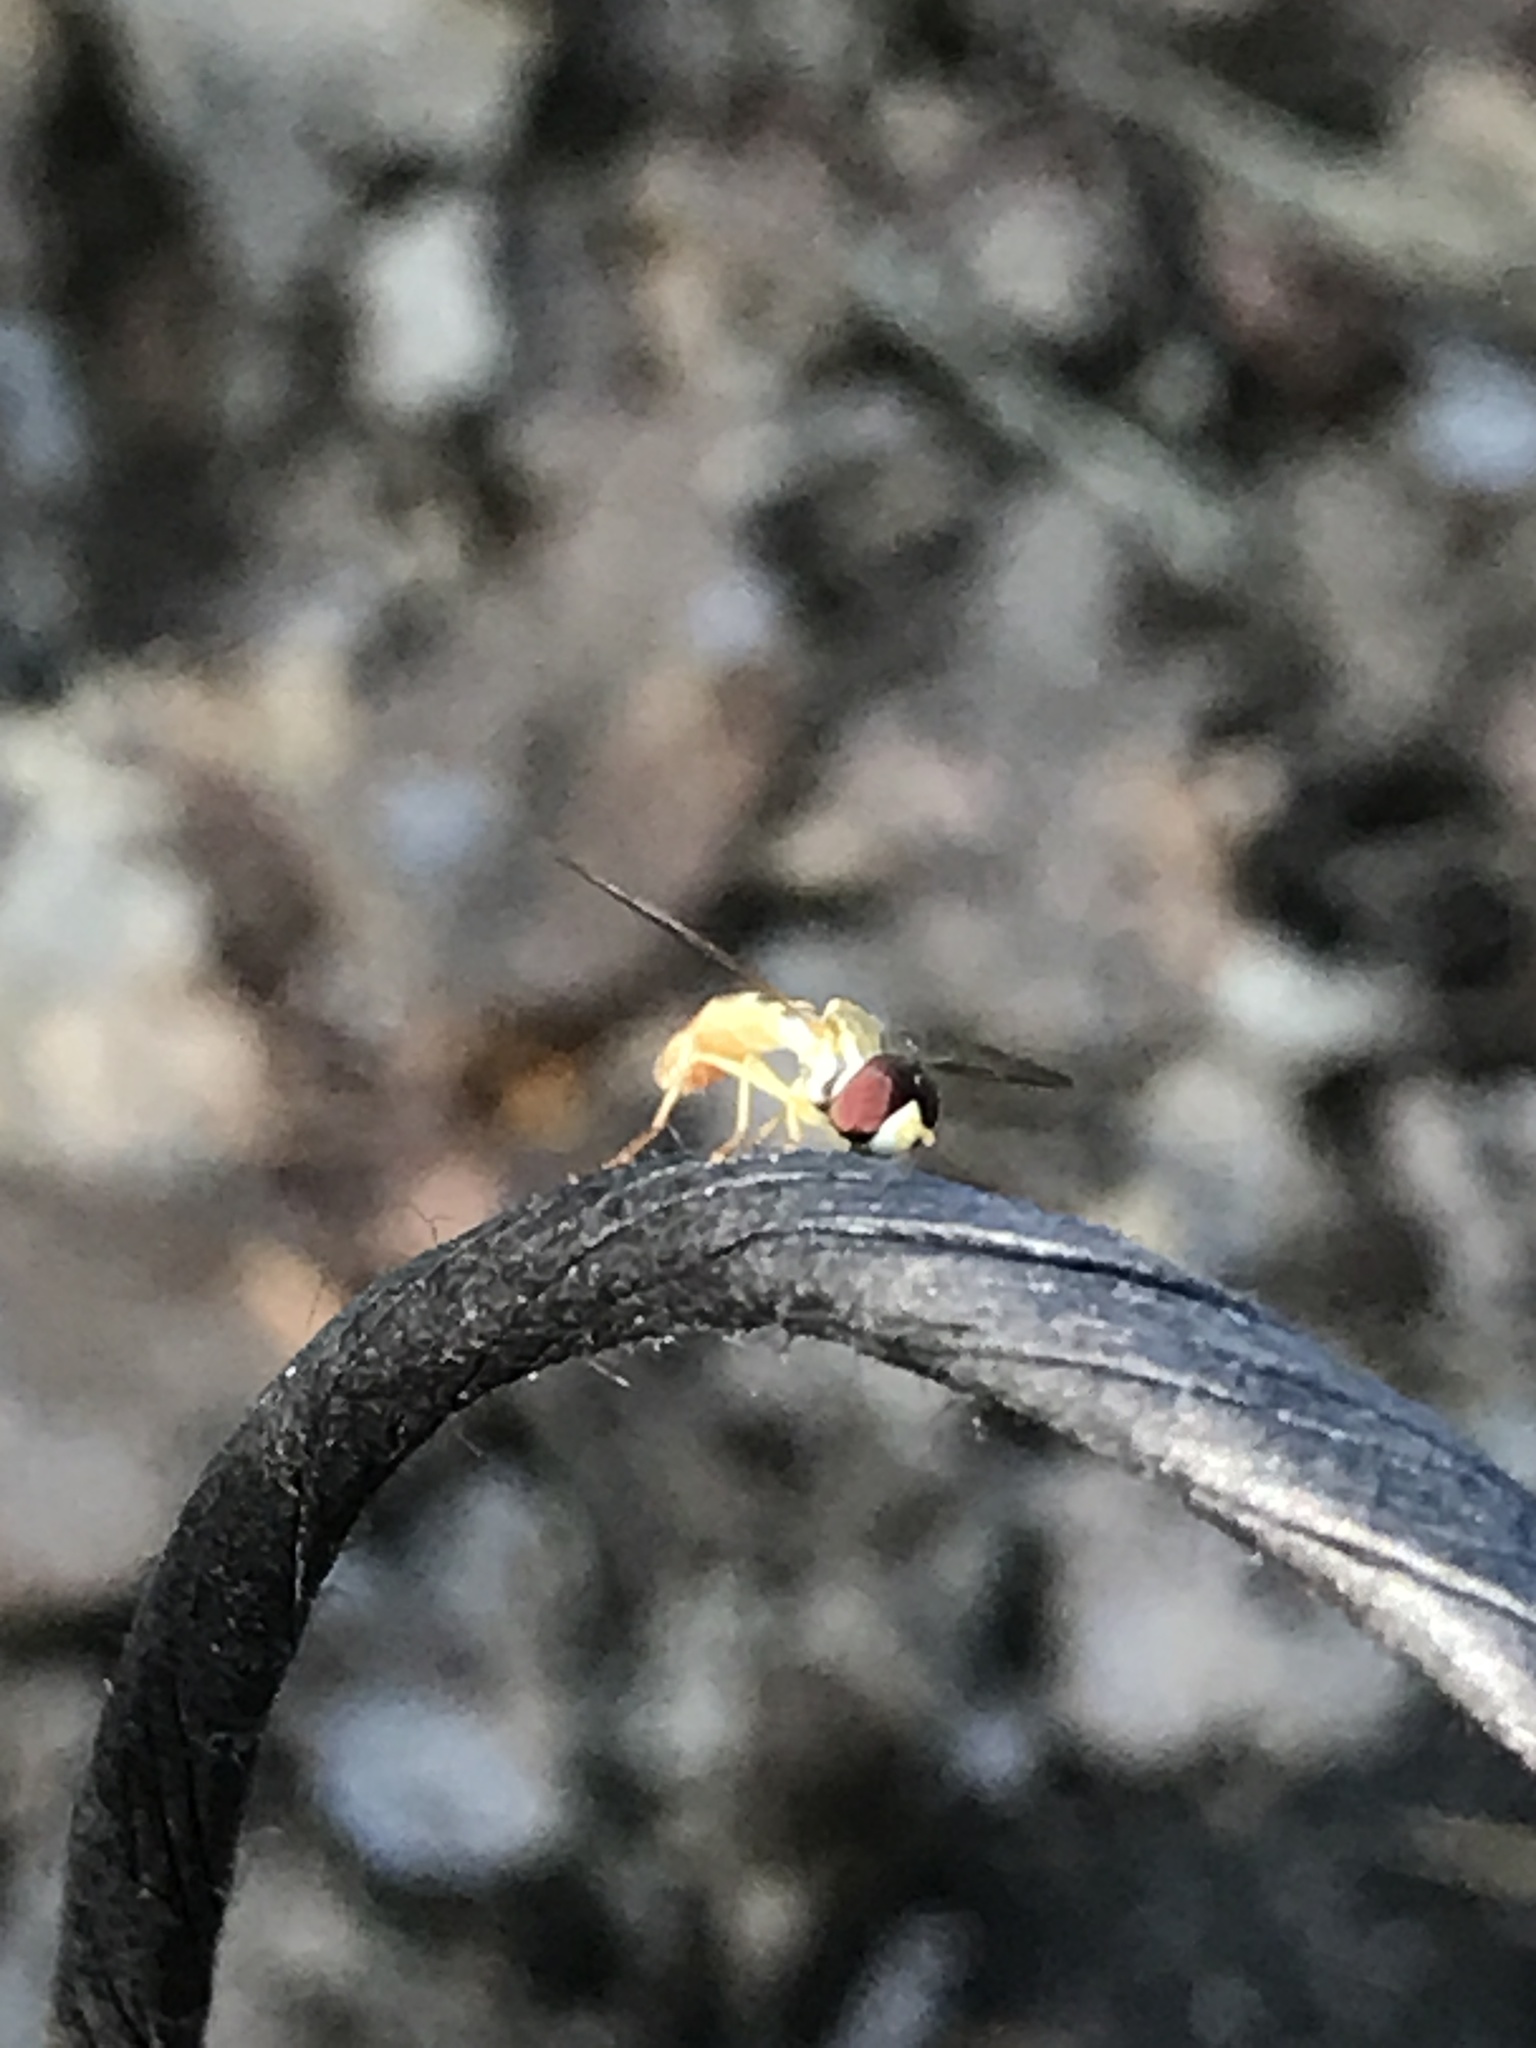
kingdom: Animalia
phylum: Arthropoda
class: Insecta
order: Diptera
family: Syrphidae
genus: Toxomerus
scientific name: Toxomerus politus
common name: Maize calligrapher
